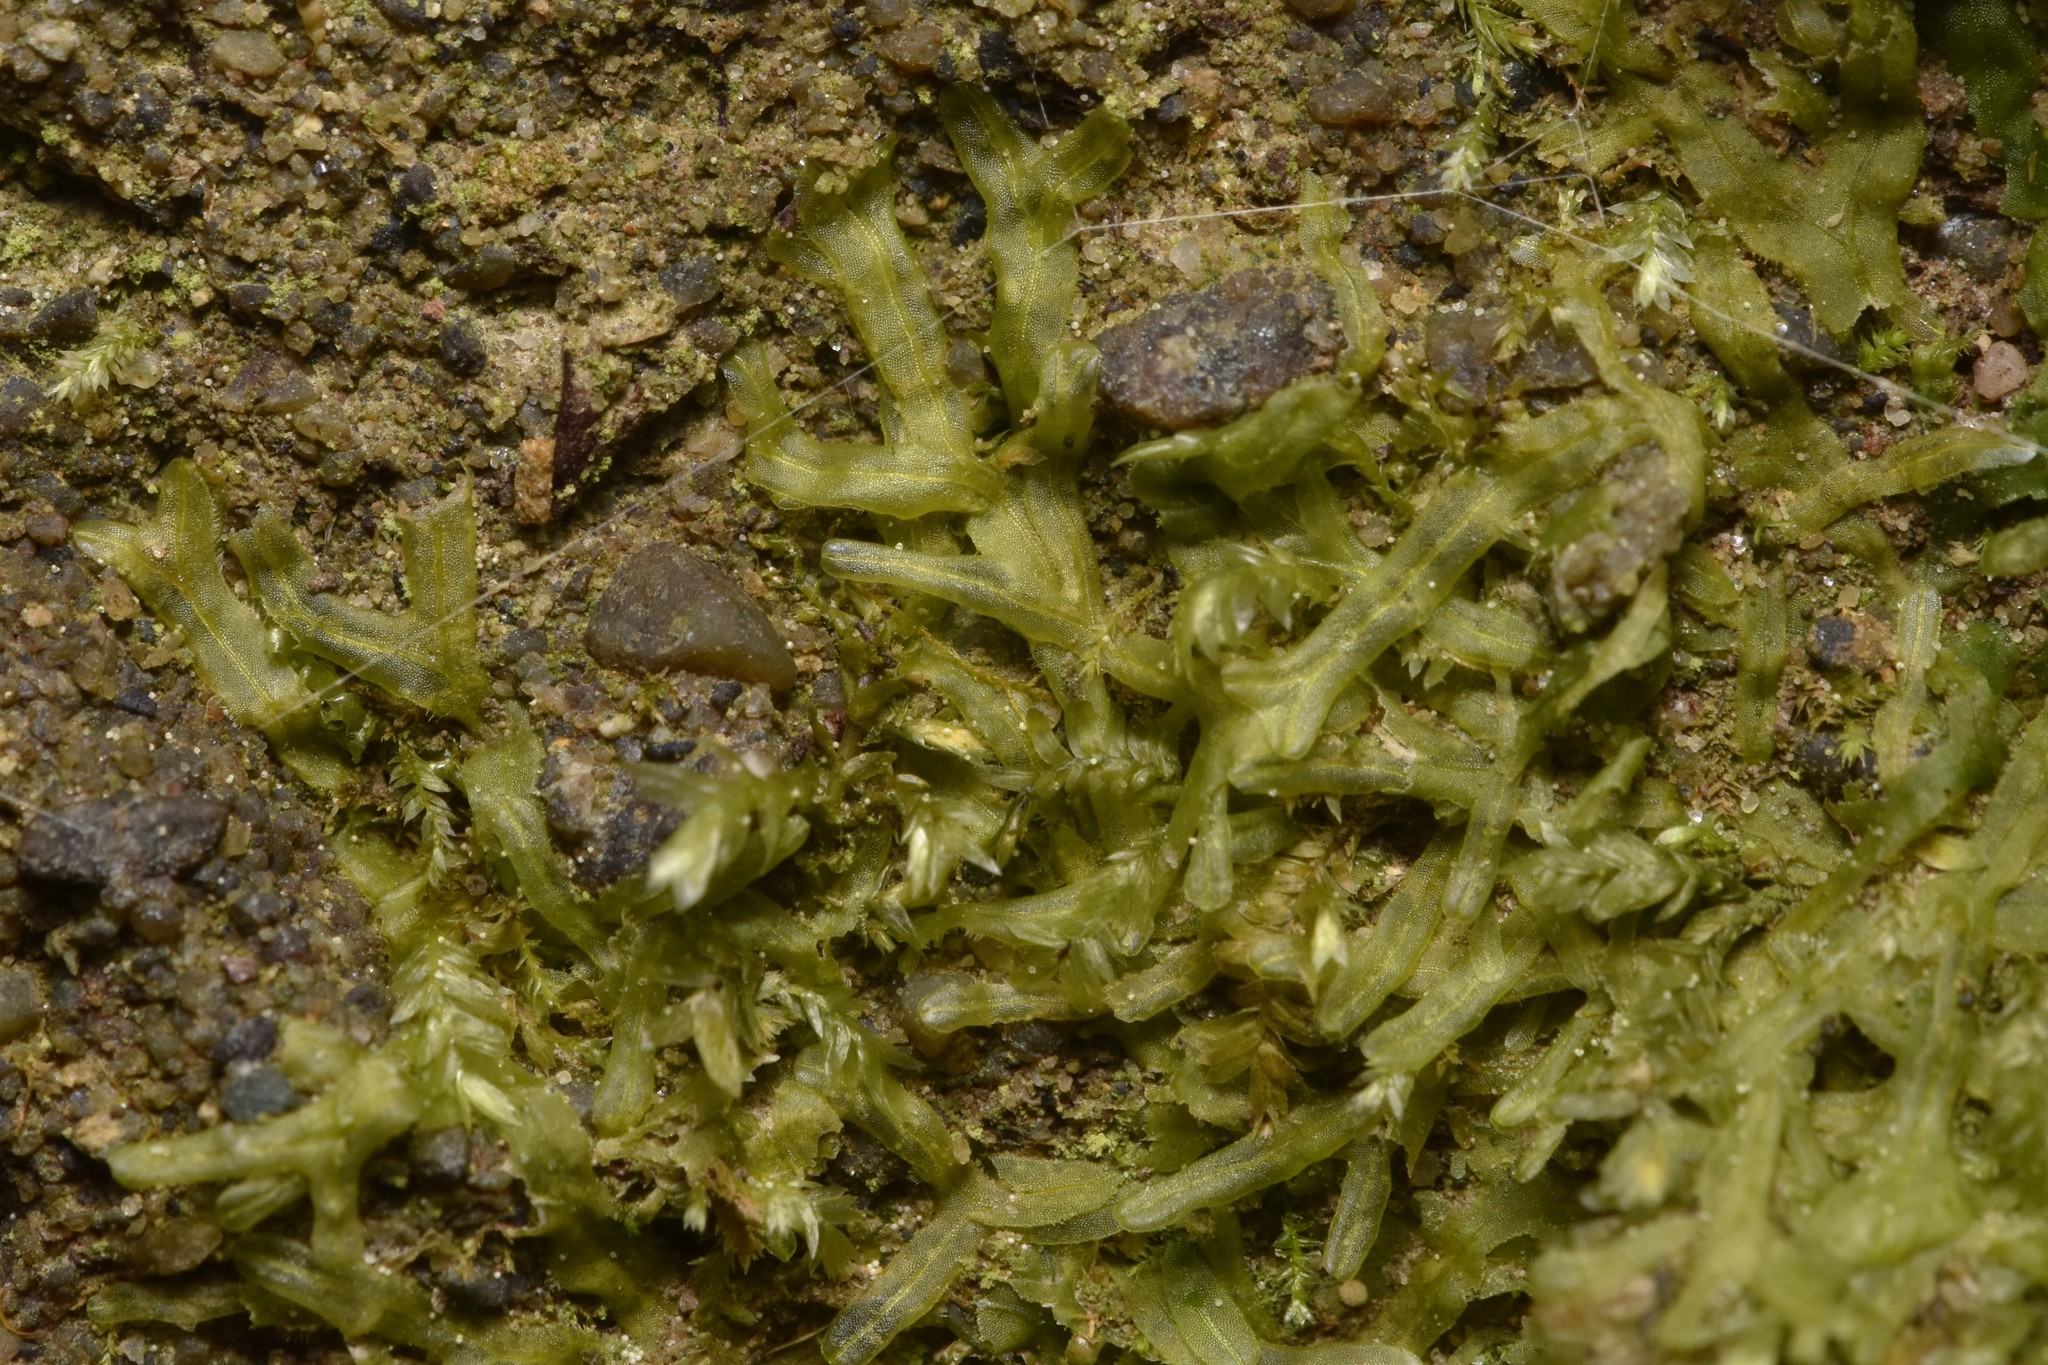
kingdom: Plantae
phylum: Marchantiophyta
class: Jungermanniopsida
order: Metzgeriales
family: Metzgeriaceae
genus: Metzgeria
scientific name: Metzgeria conjugata
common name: Rock veilwort
